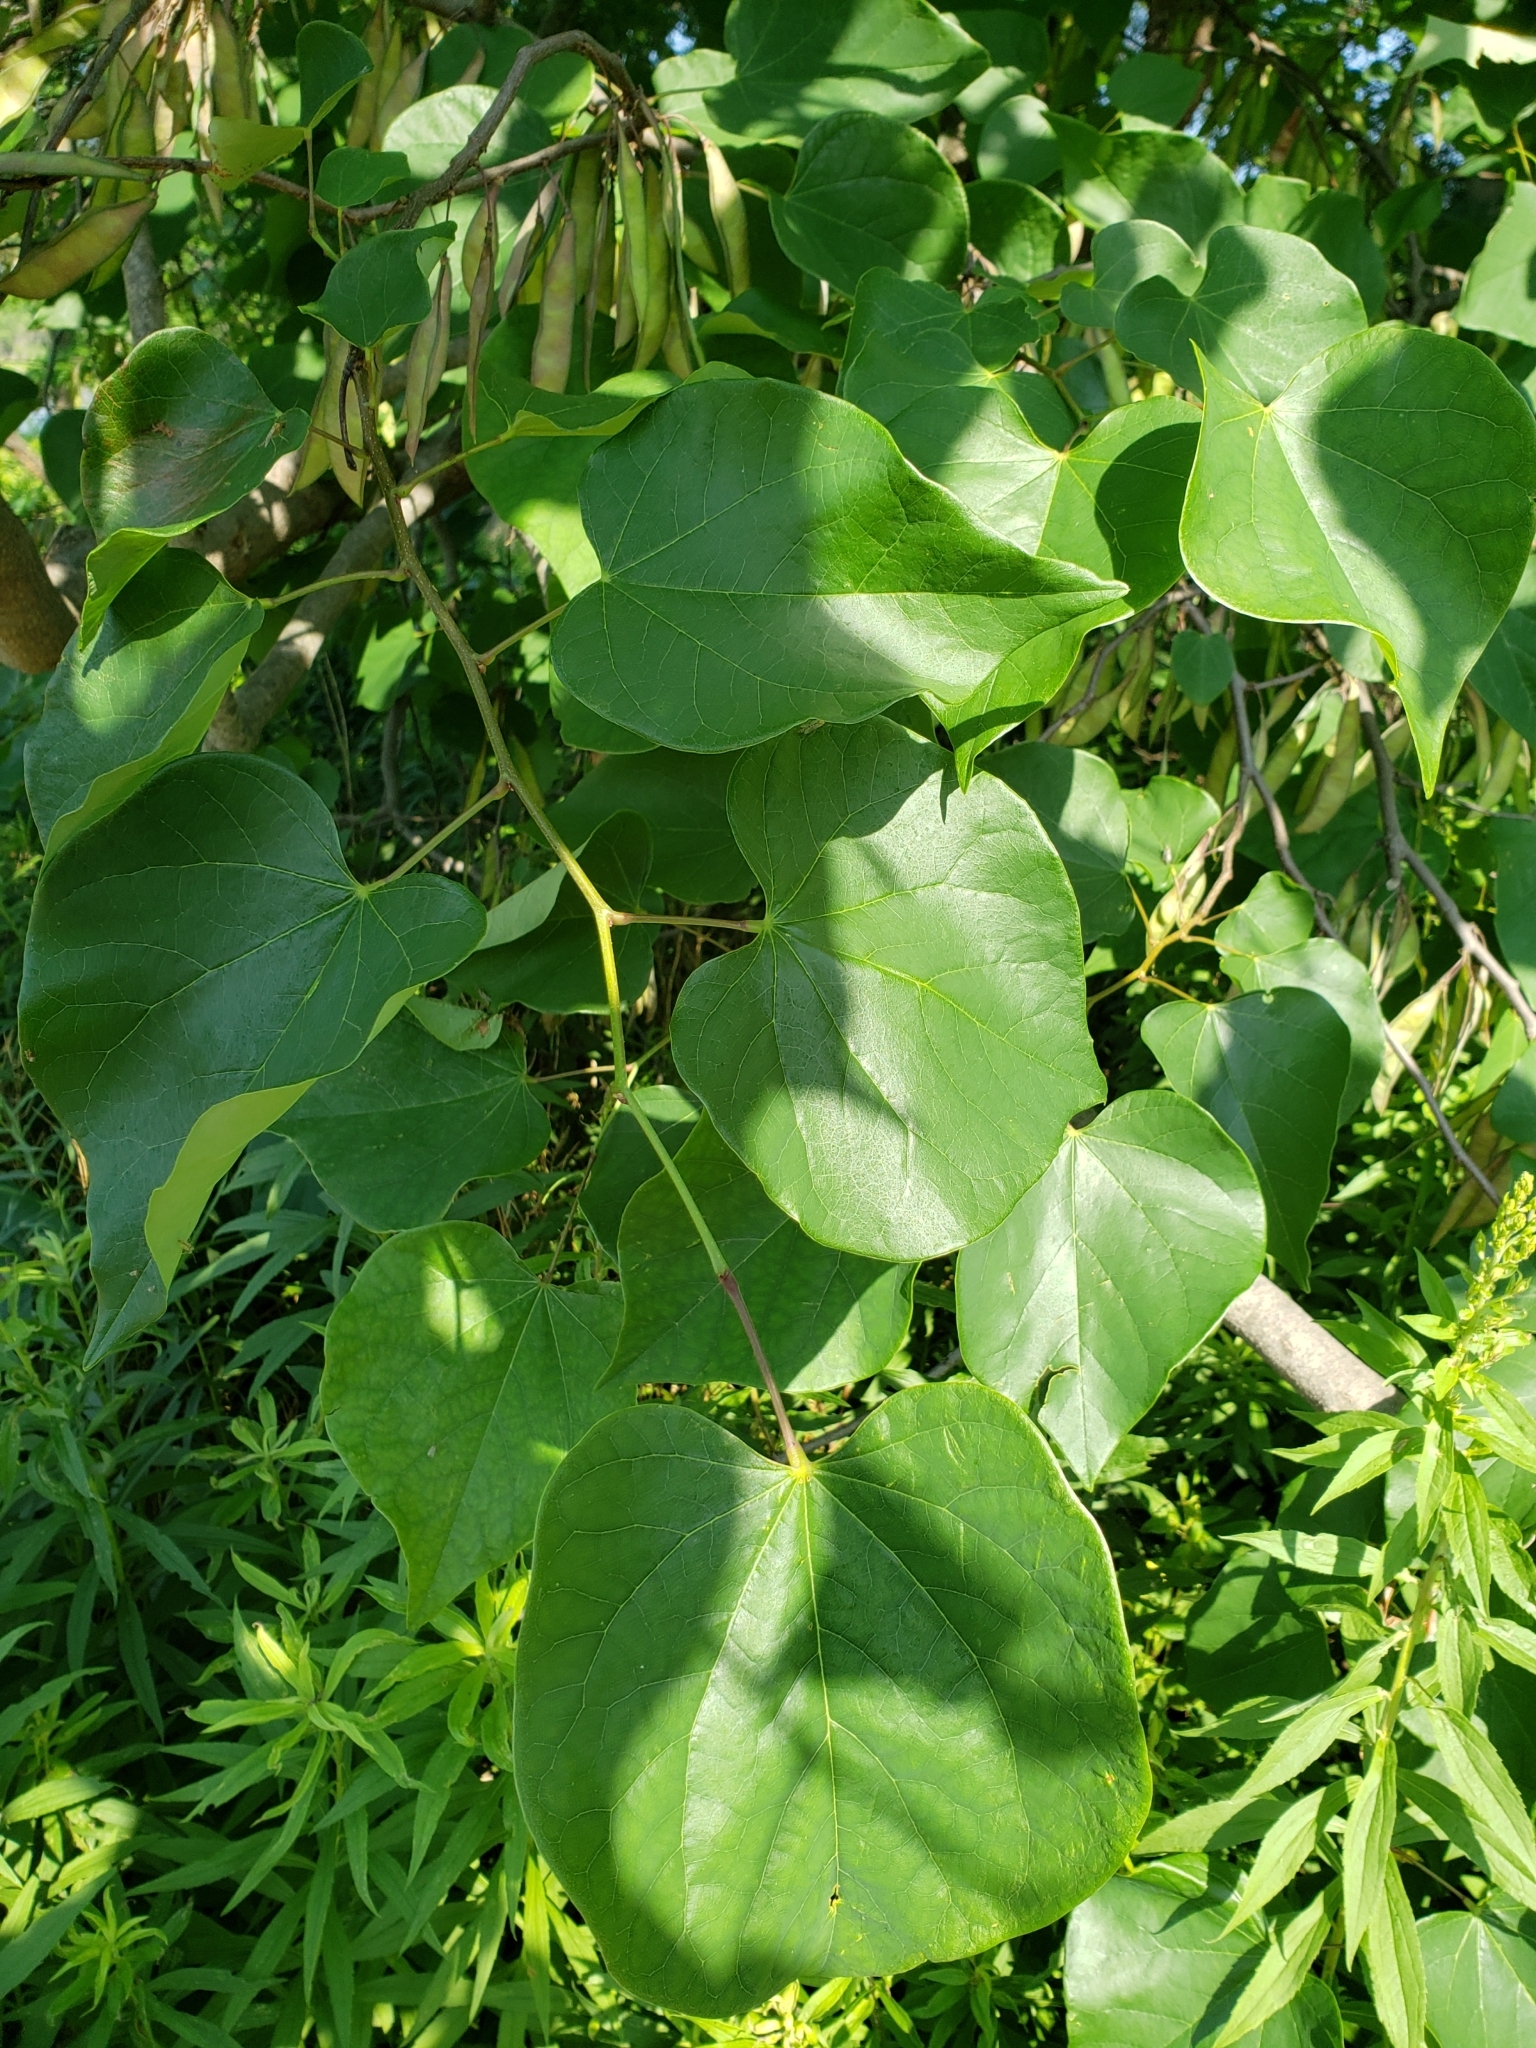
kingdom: Plantae
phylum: Tracheophyta
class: Magnoliopsida
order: Fabales
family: Fabaceae
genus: Cercis
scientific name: Cercis canadensis
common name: Eastern redbud
